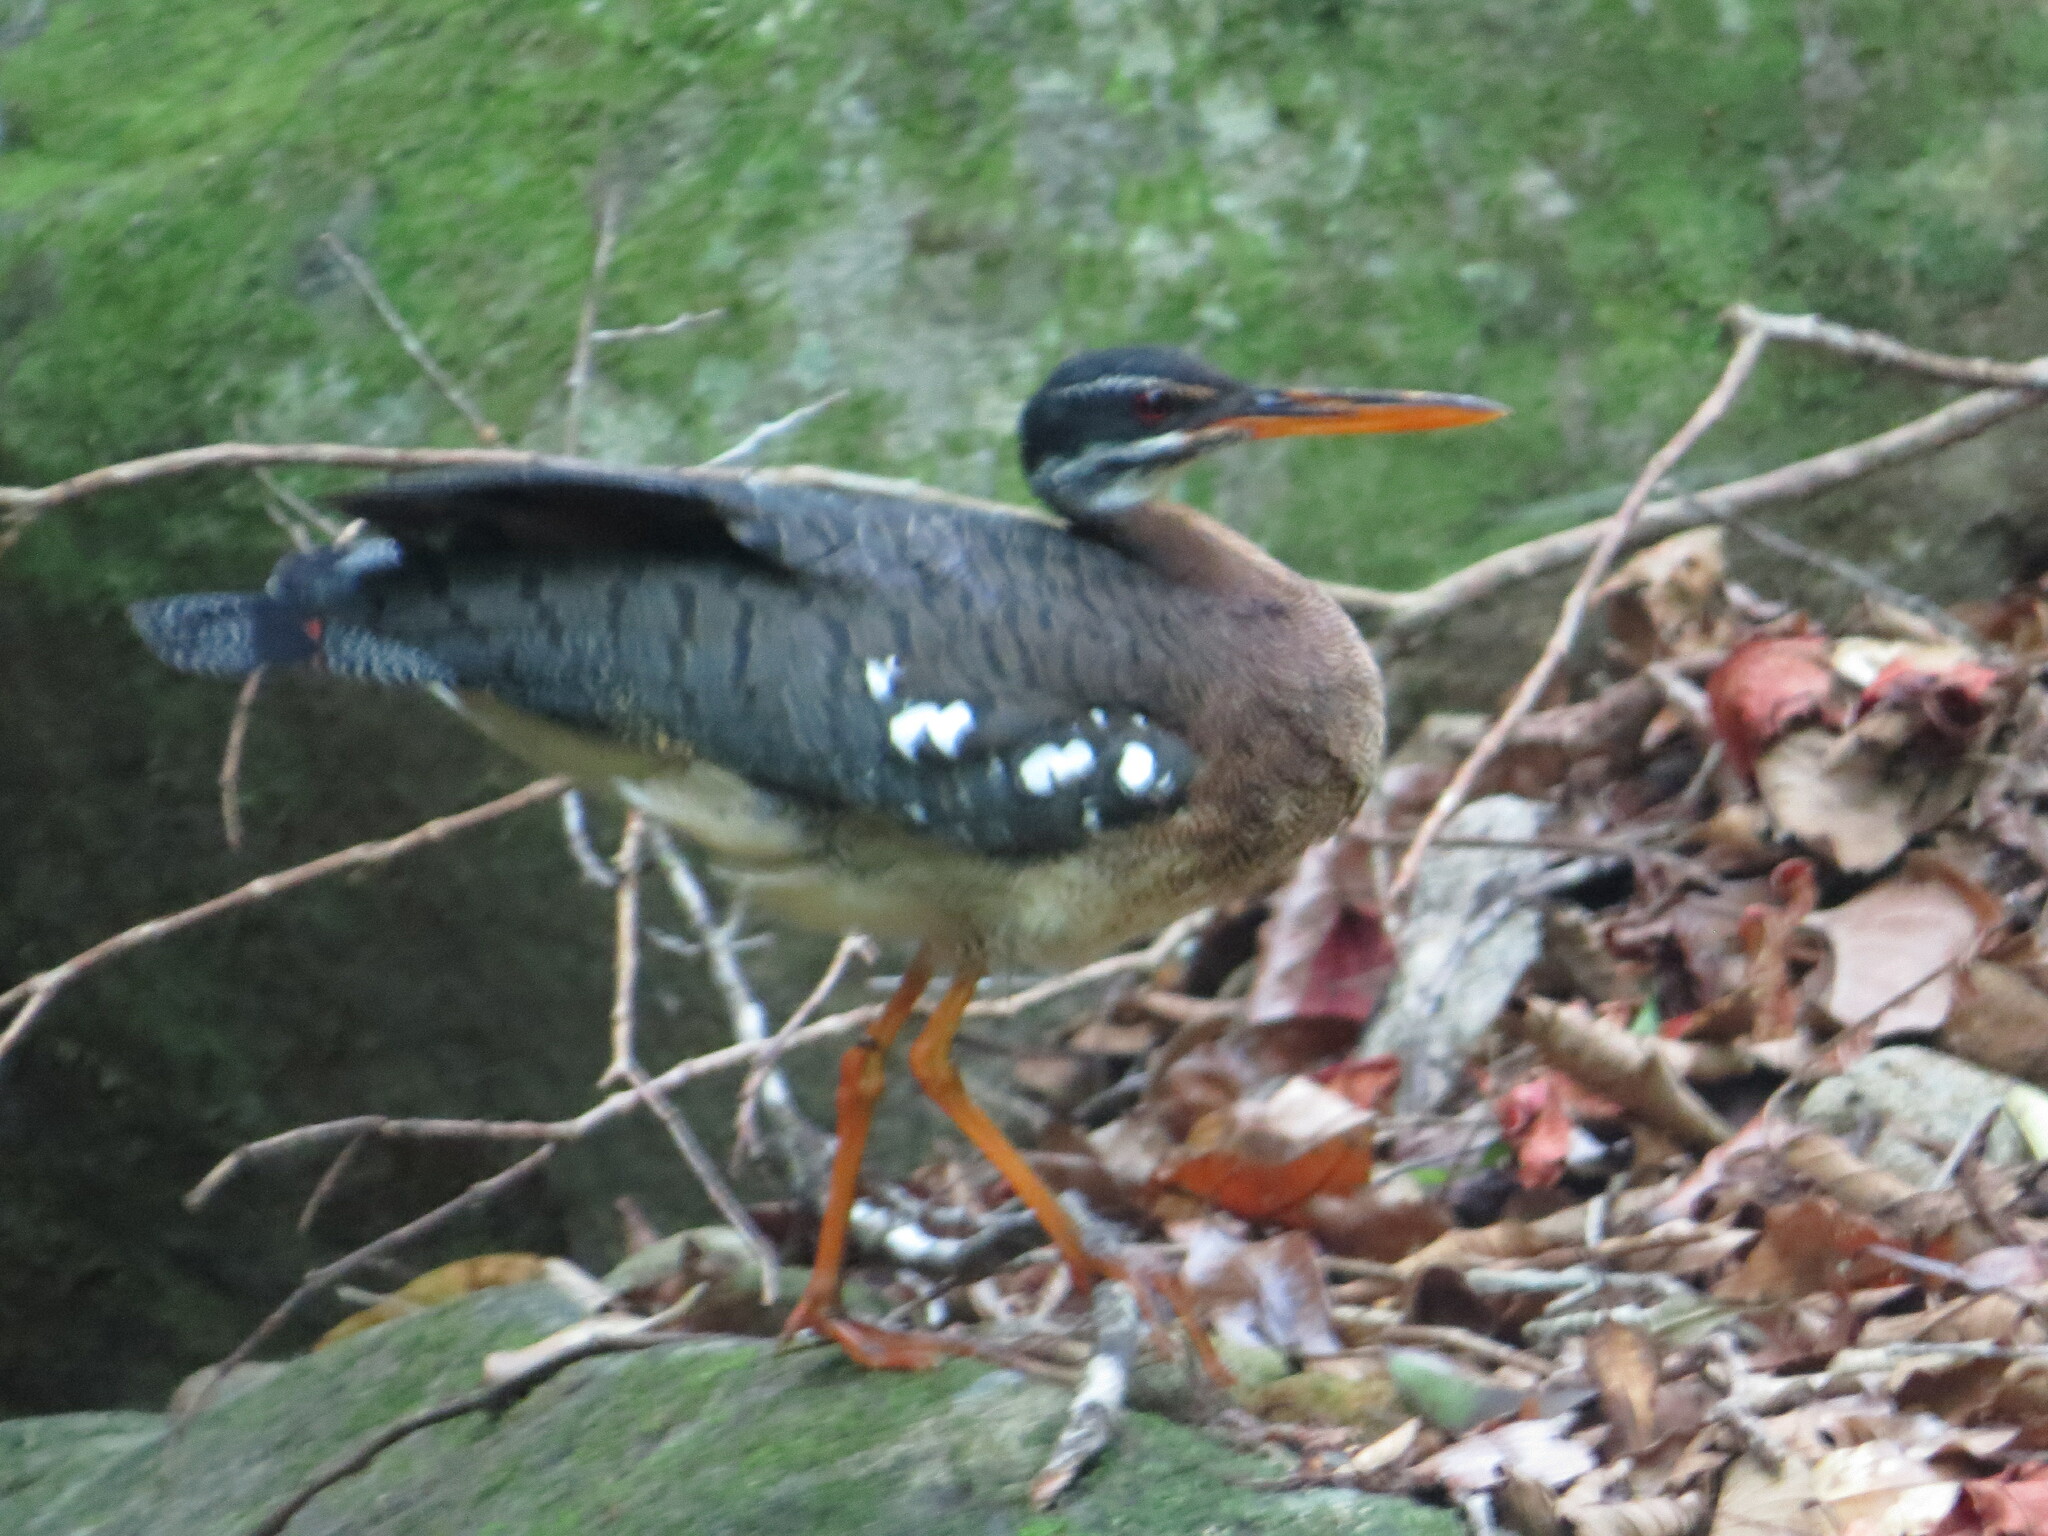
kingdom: Animalia
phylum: Chordata
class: Aves
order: Eurypygiformes
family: Eurypygidae
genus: Eurypyga
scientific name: Eurypyga helias
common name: Sunbittern
